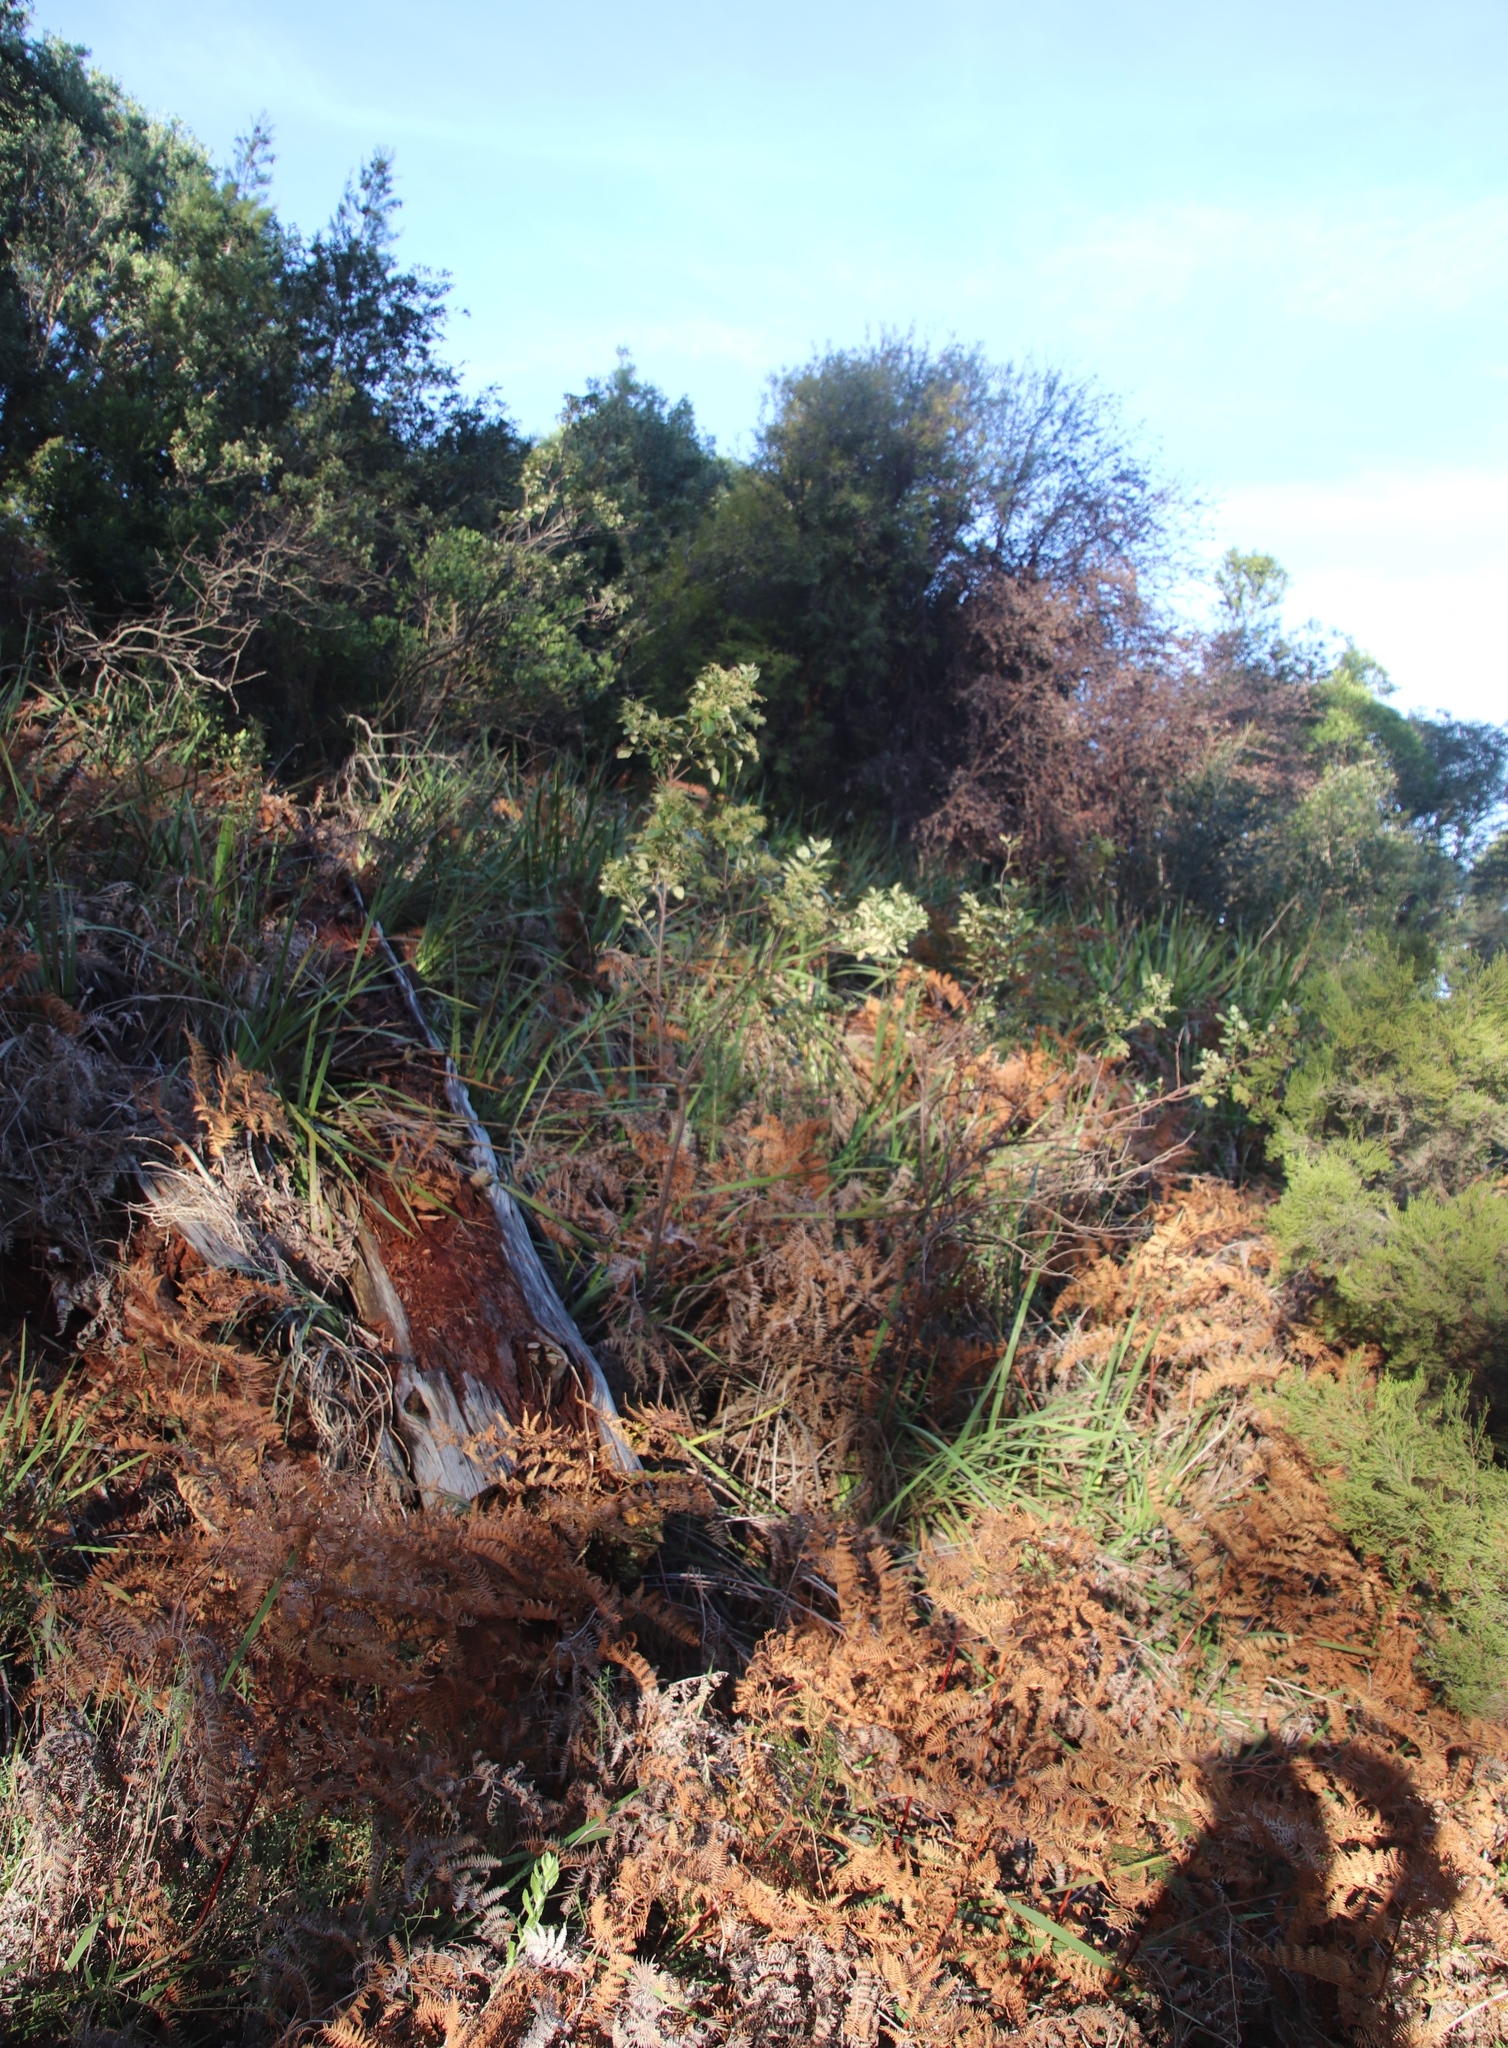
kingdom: Plantae
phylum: Tracheophyta
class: Magnoliopsida
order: Sapindales
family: Anacardiaceae
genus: Searsia
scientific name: Searsia tomentosa
